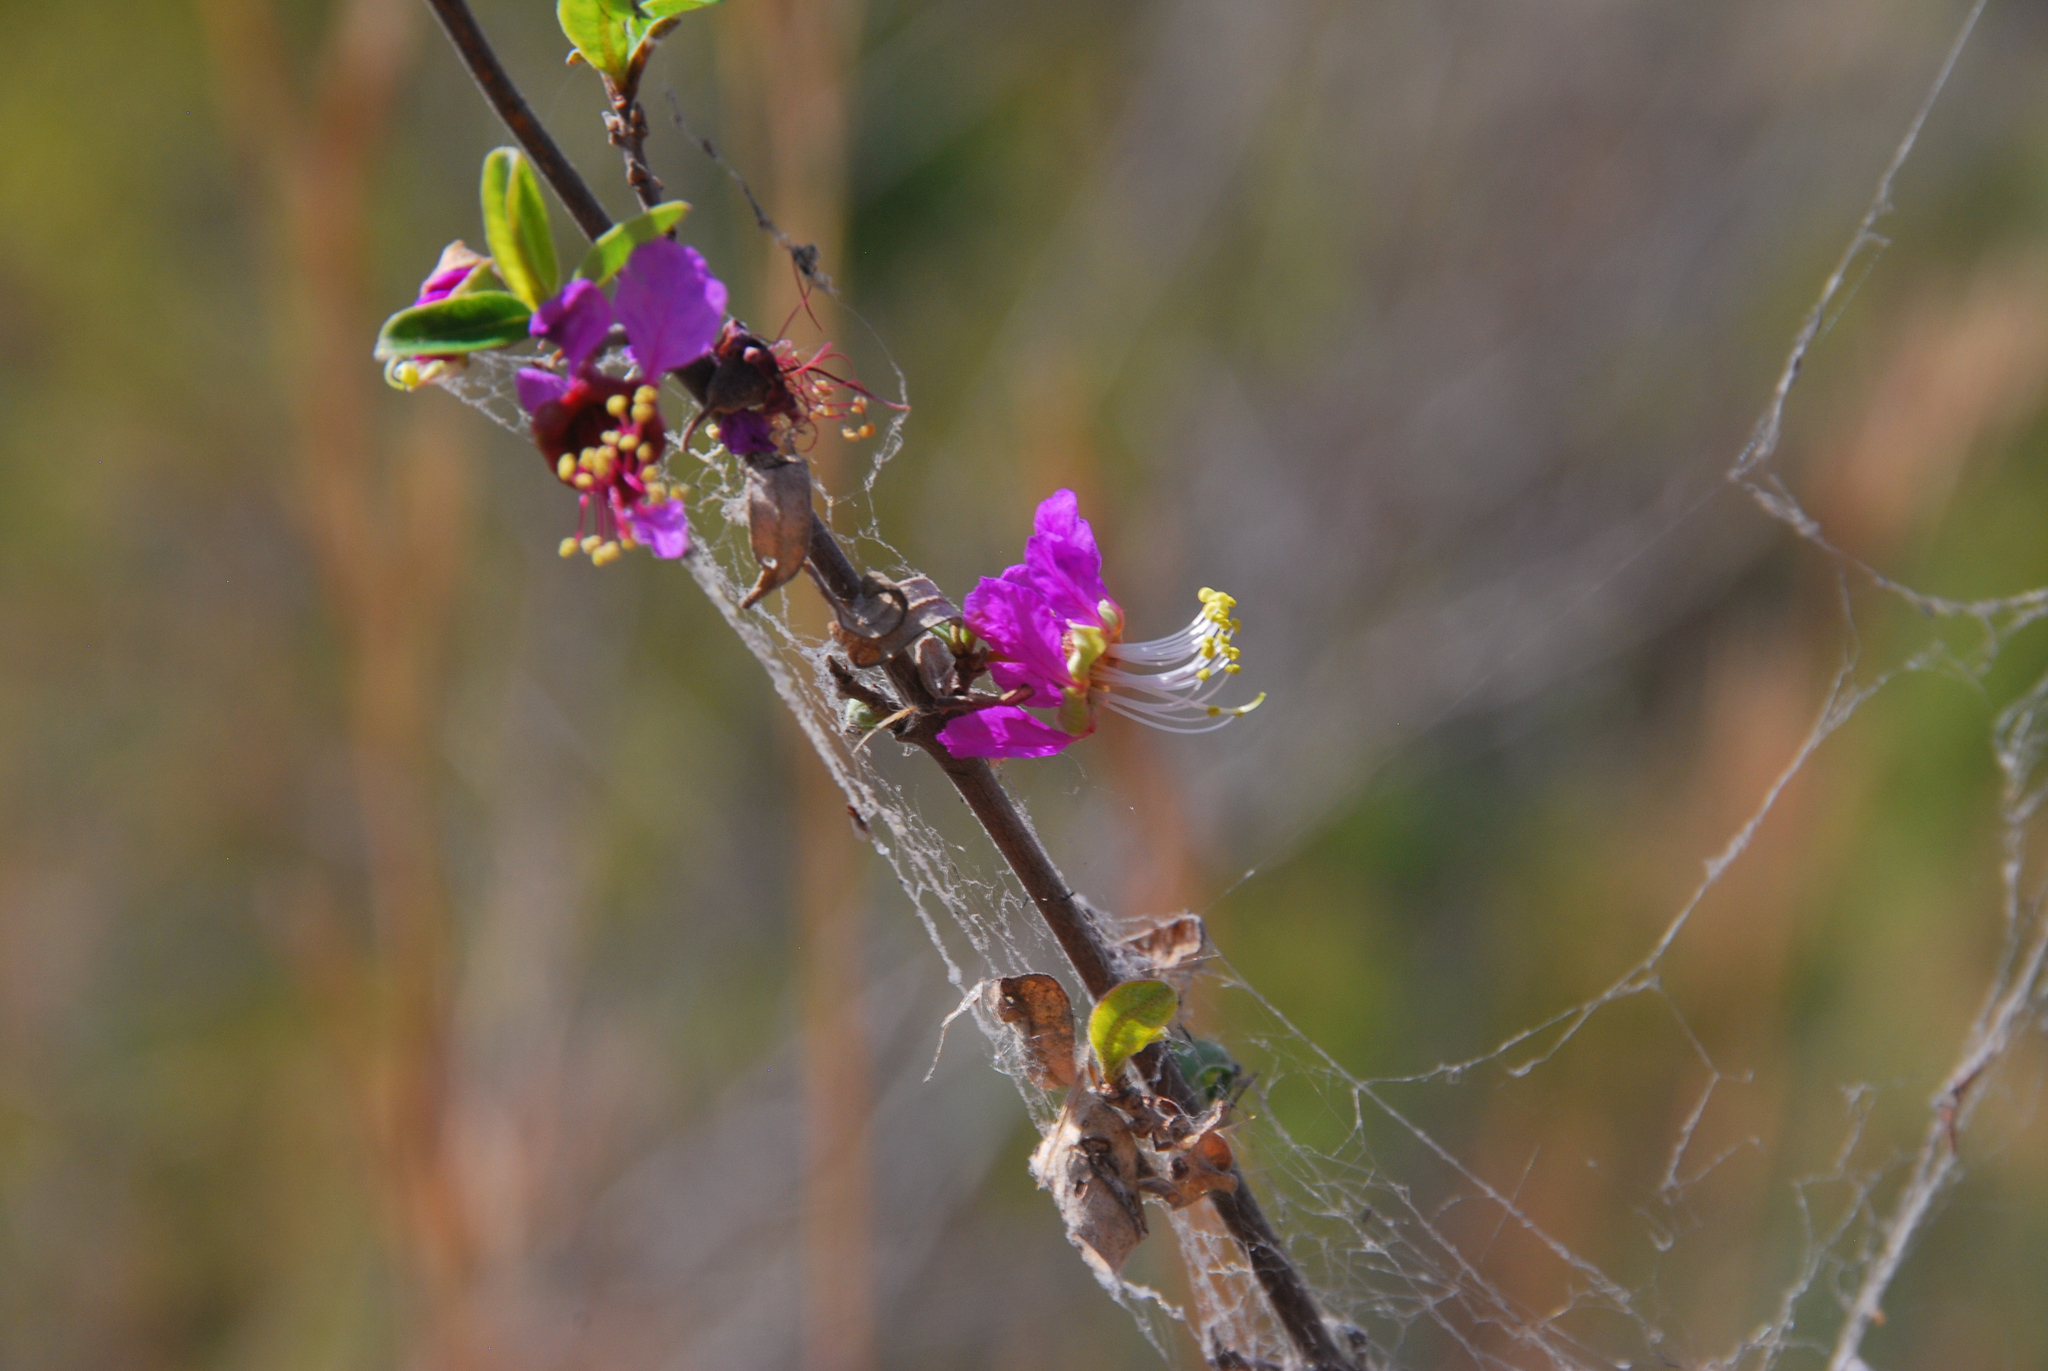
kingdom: Plantae
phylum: Tracheophyta
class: Magnoliopsida
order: Myrtales
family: Lythraceae
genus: Koehneria
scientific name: Koehneria madagascariensis
